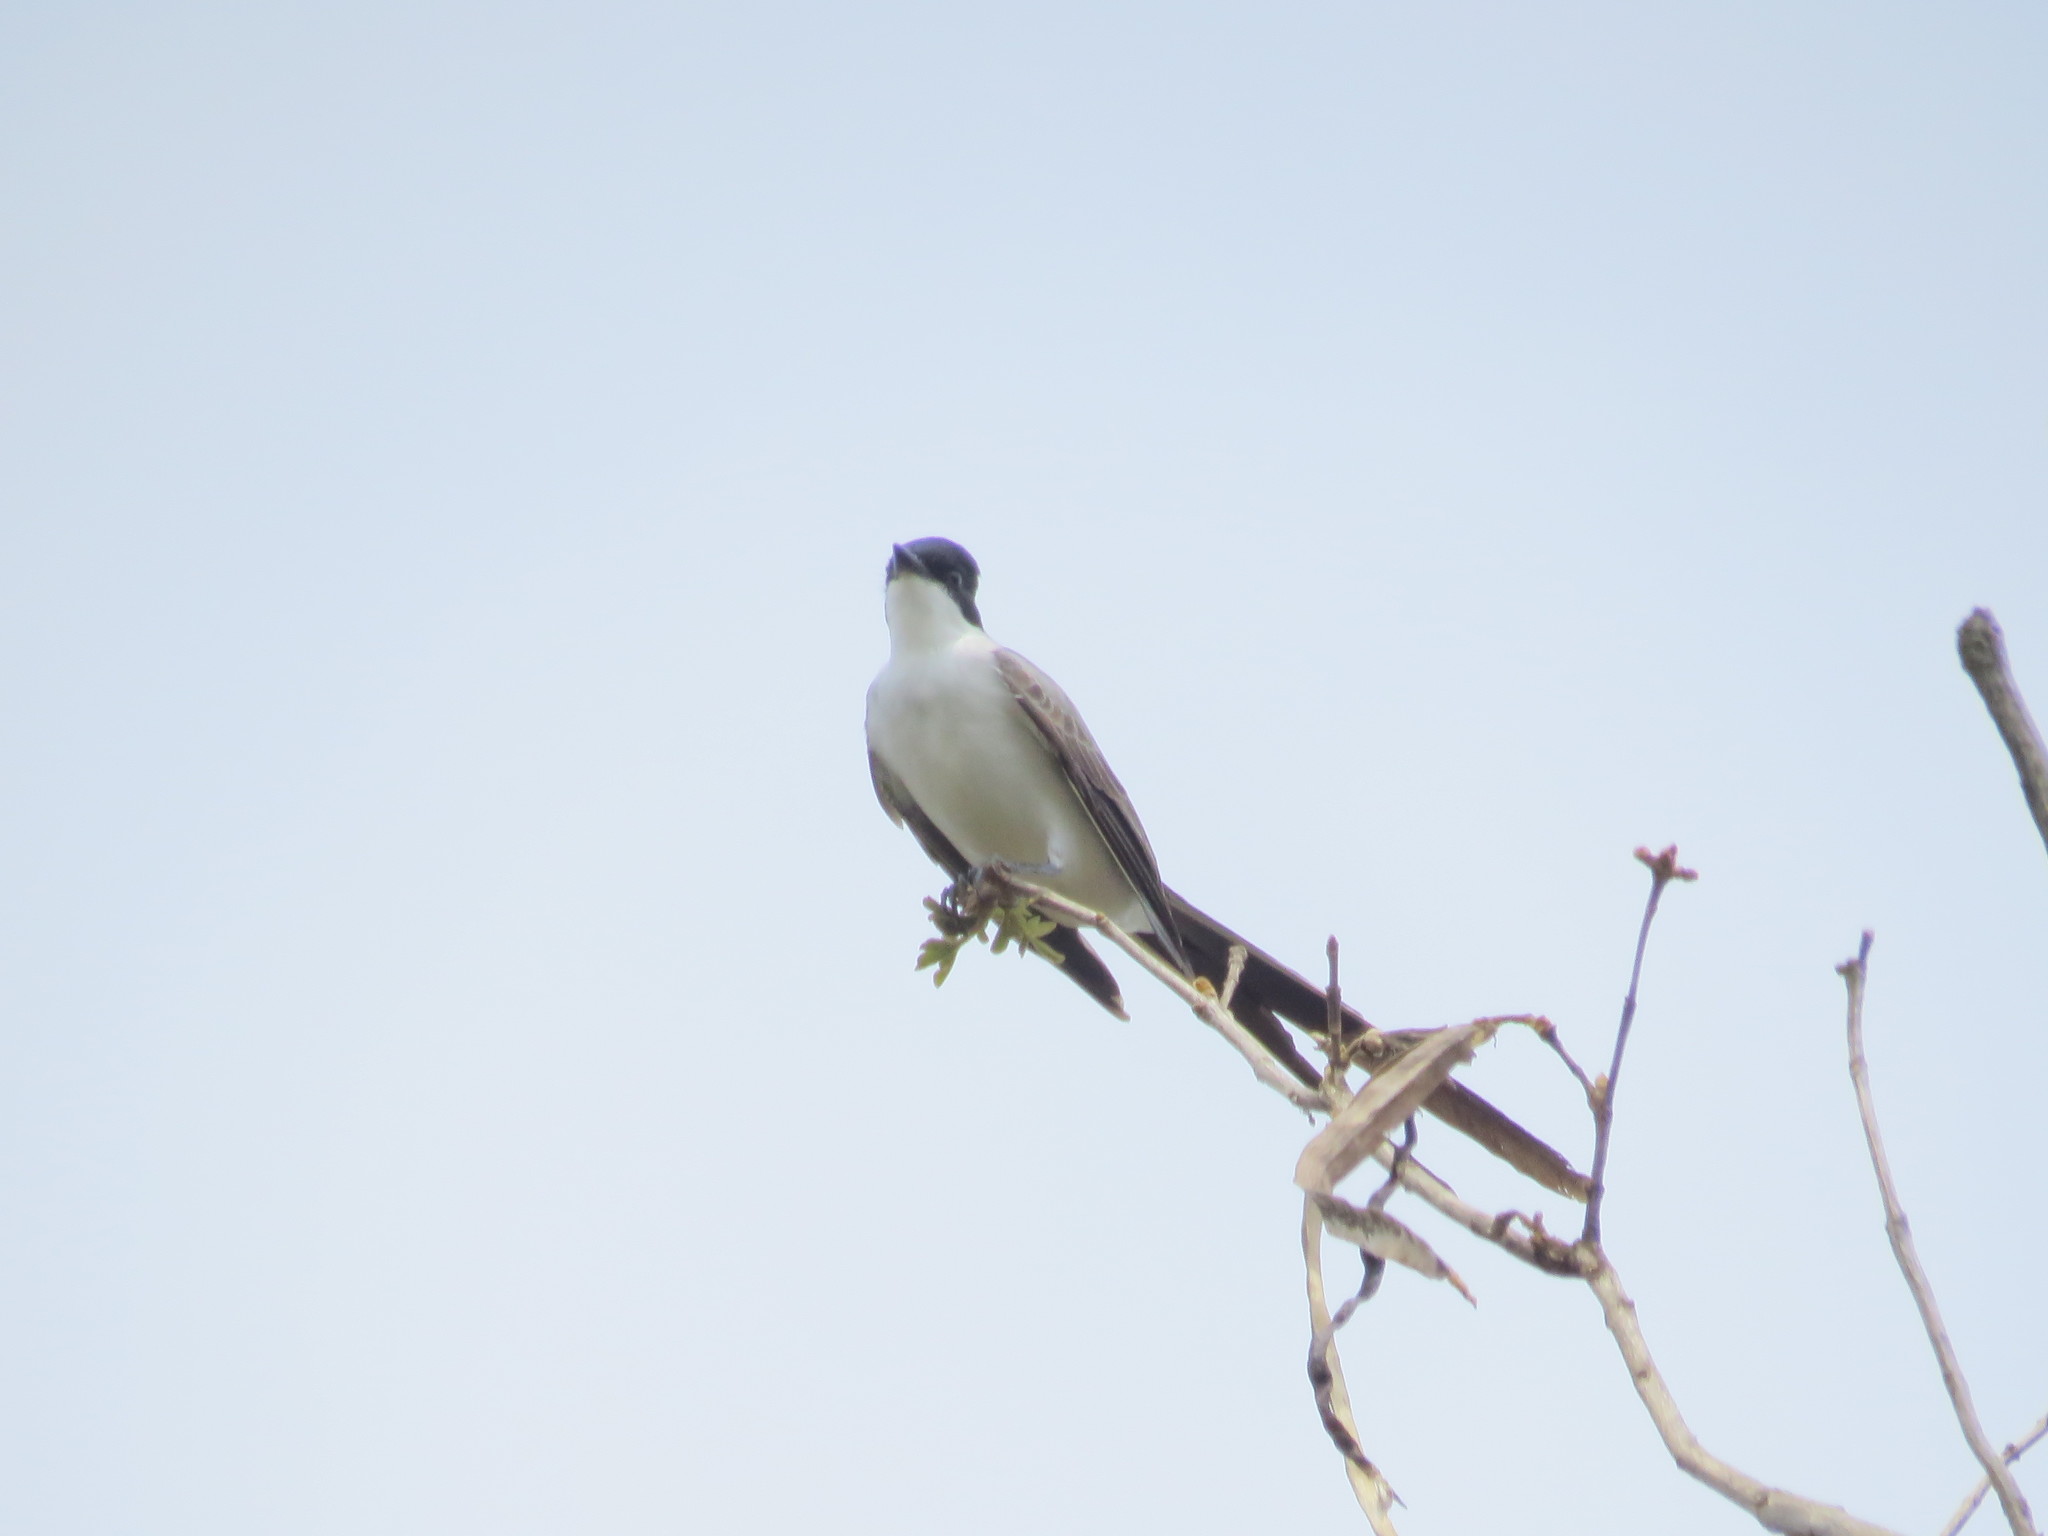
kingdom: Animalia
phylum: Chordata
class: Aves
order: Passeriformes
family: Tyrannidae
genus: Tyrannus
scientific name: Tyrannus savana
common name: Fork-tailed flycatcher
